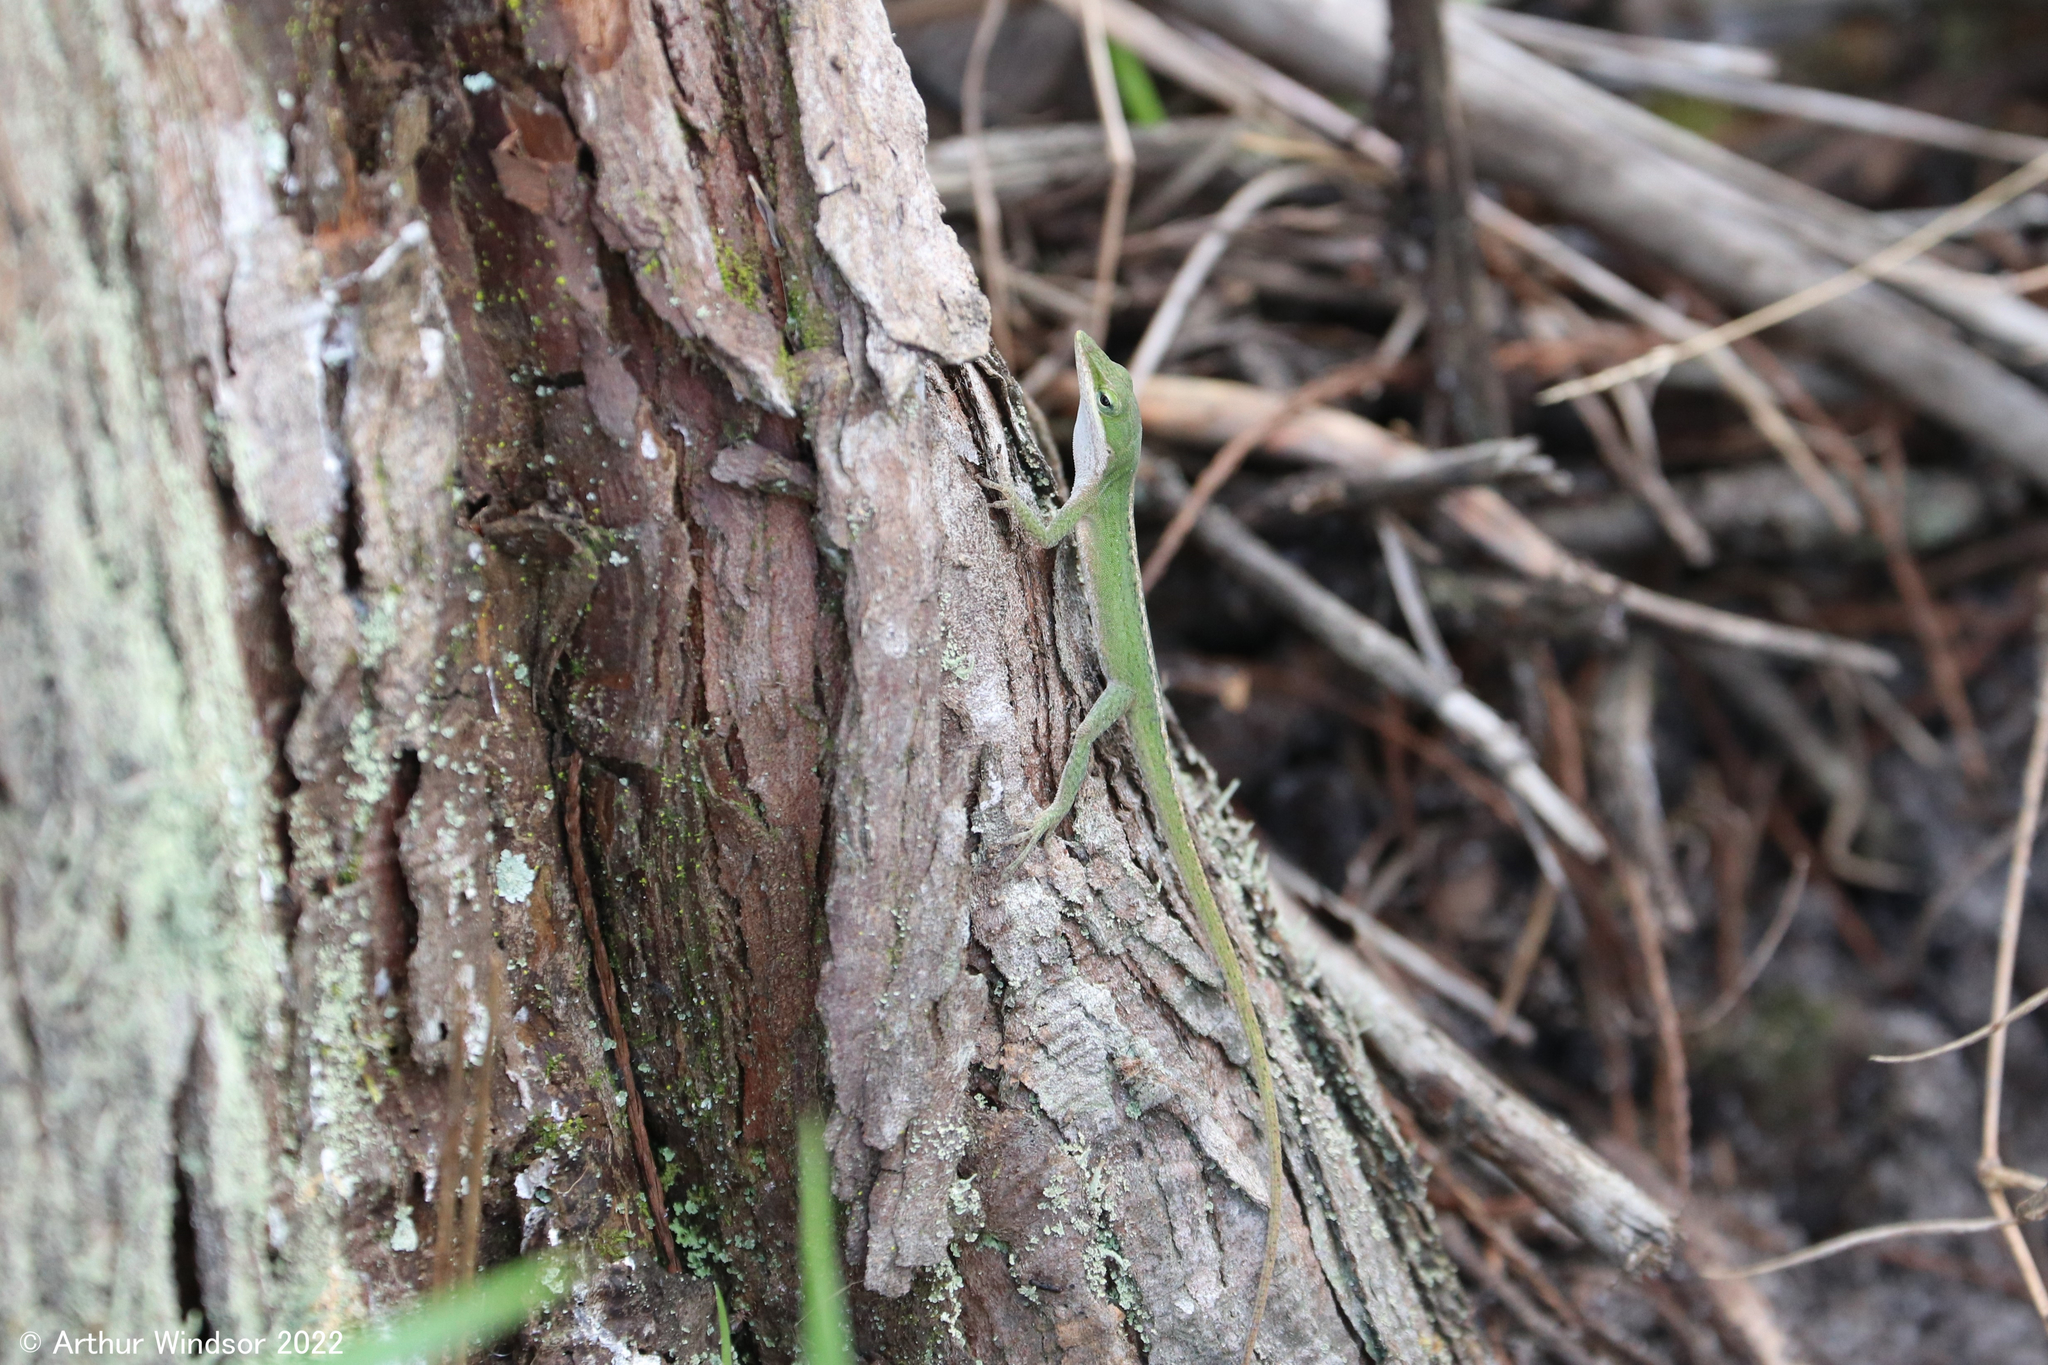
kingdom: Animalia
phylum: Chordata
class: Squamata
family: Dactyloidae
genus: Anolis
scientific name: Anolis carolinensis
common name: Green anole
